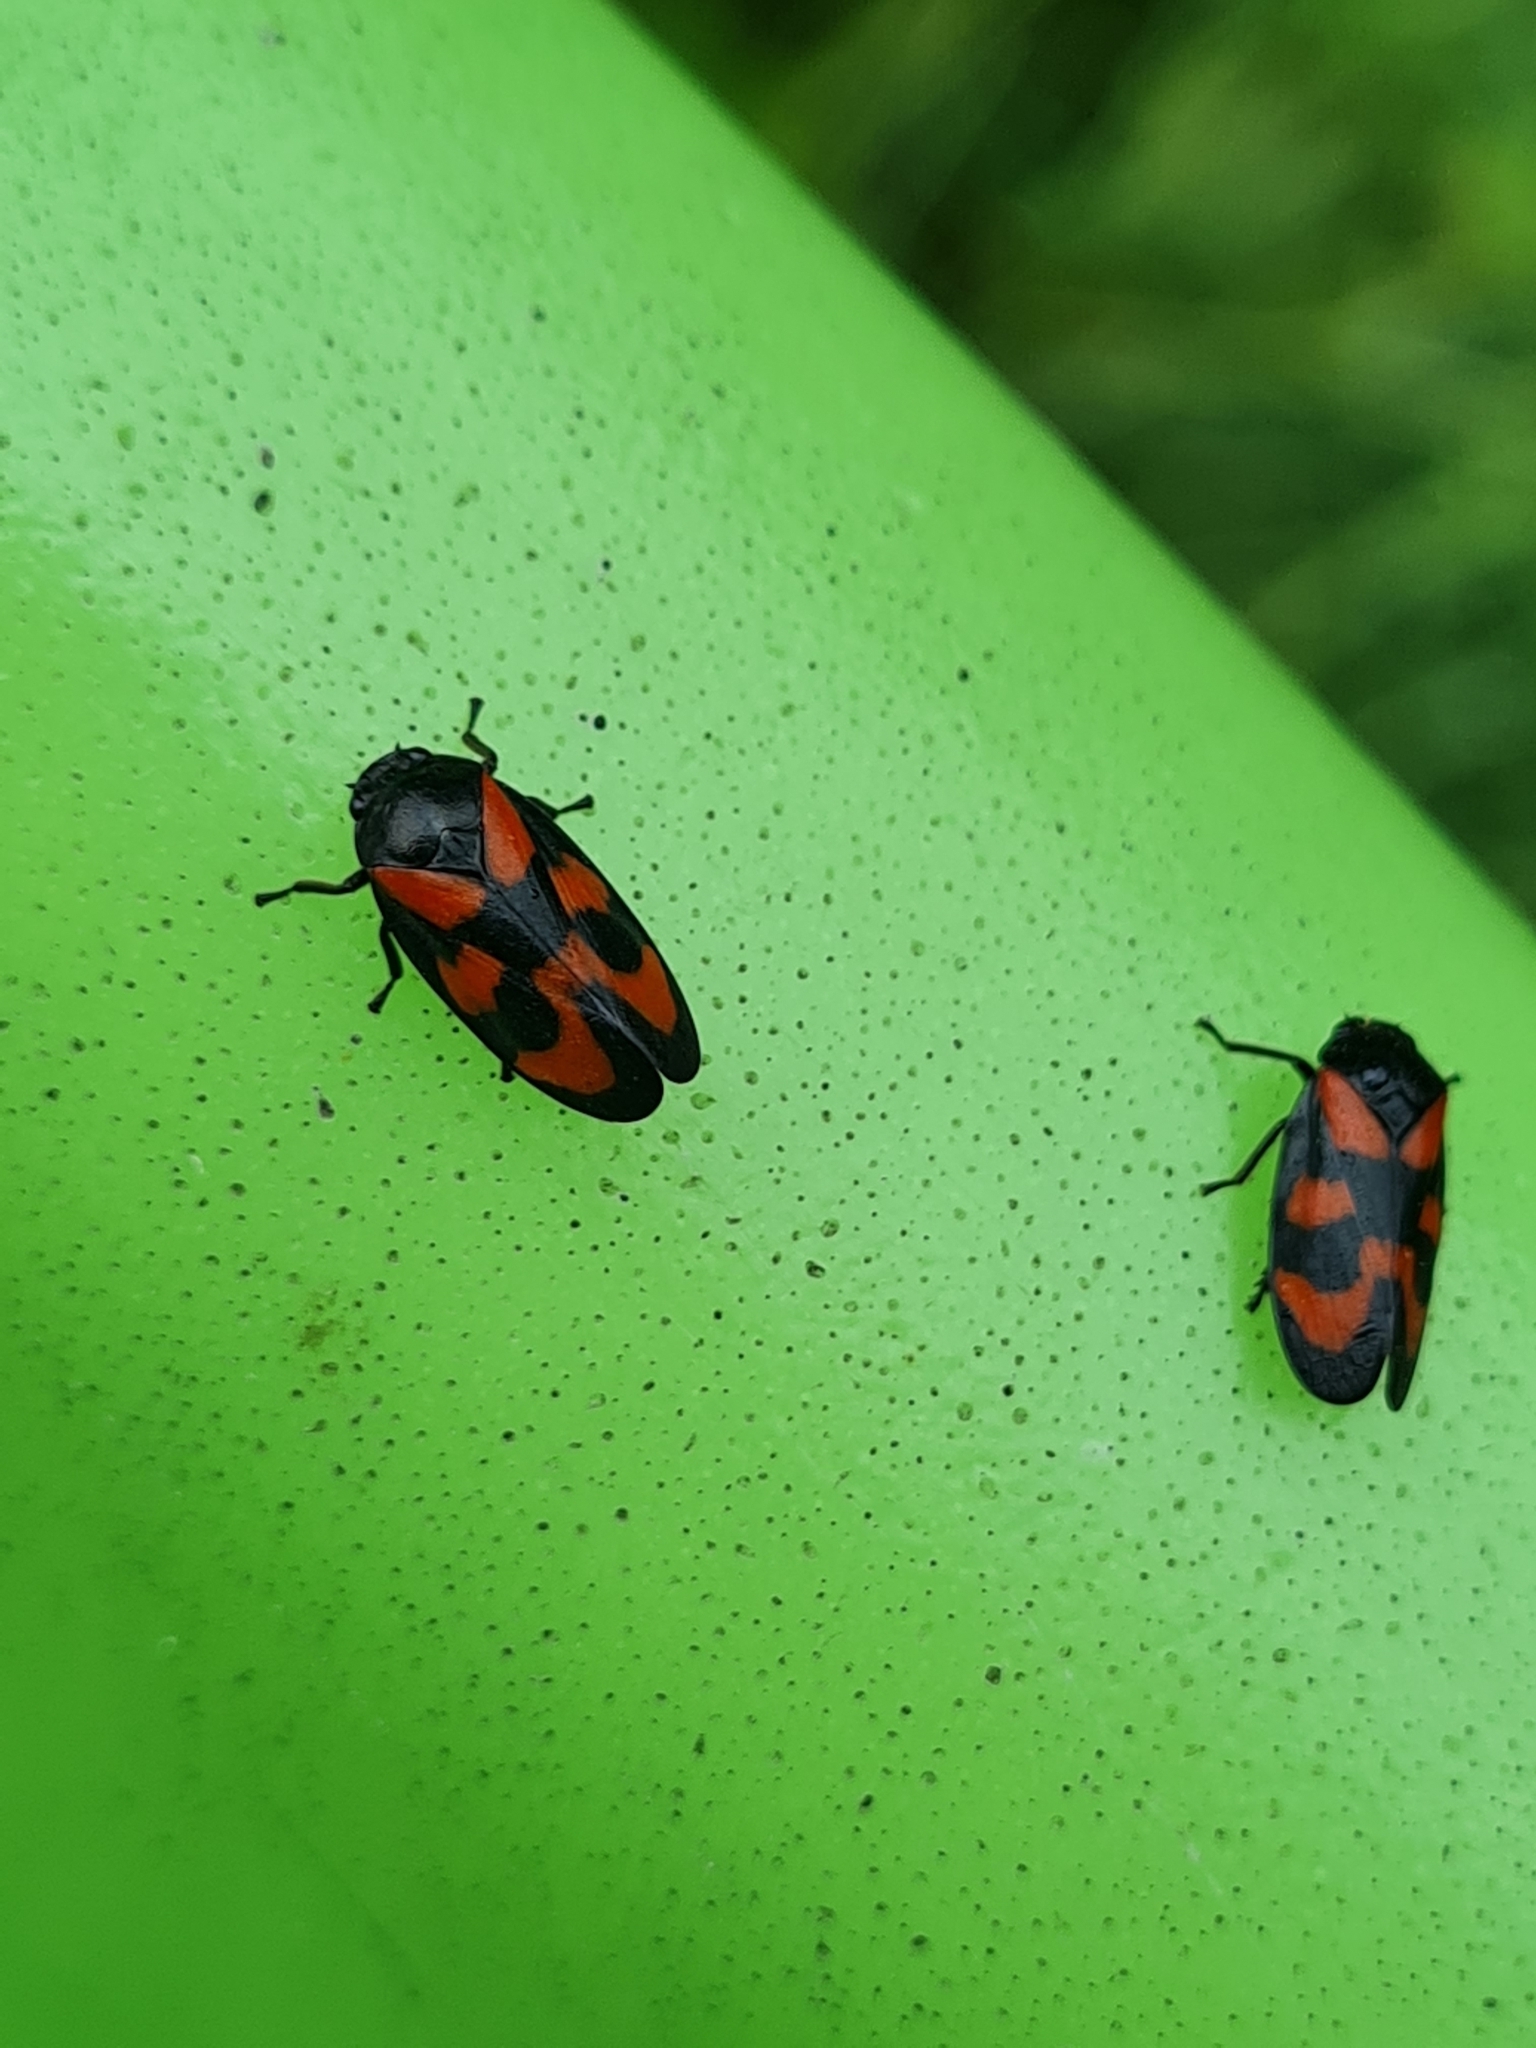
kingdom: Animalia
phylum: Arthropoda
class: Insecta
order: Hemiptera
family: Cercopidae
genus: Cercopis
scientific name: Cercopis vulnerata
